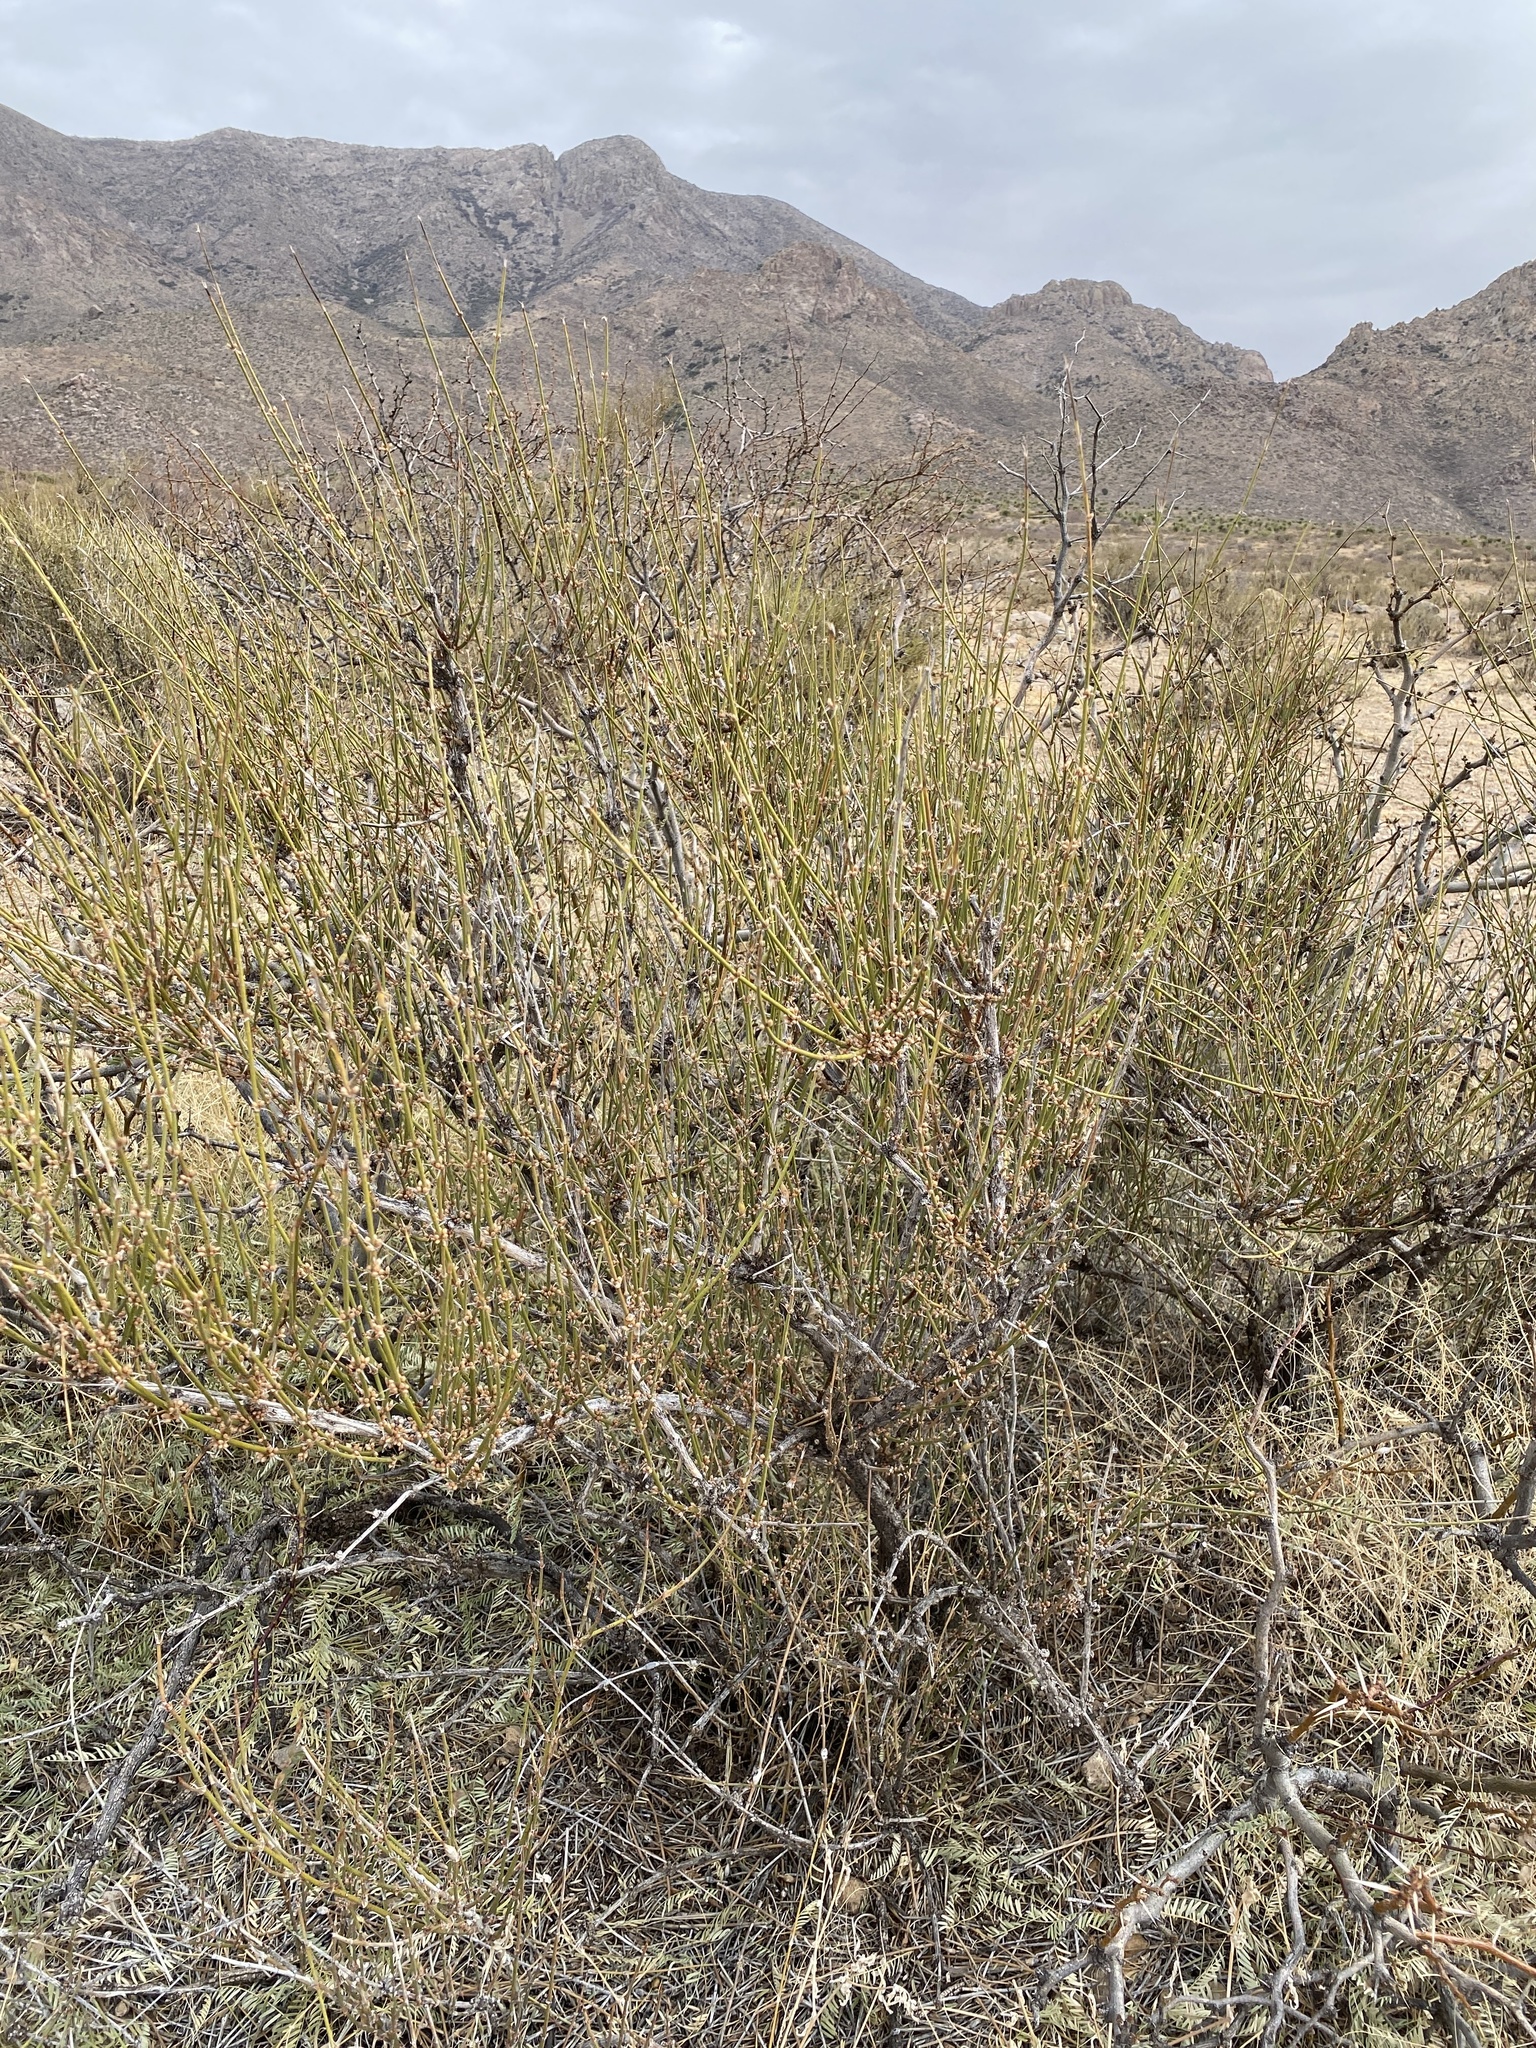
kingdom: Plantae
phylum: Tracheophyta
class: Gnetopsida
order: Ephedrales
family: Ephedraceae
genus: Ephedra
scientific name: Ephedra trifurca
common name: Mexican-tea
